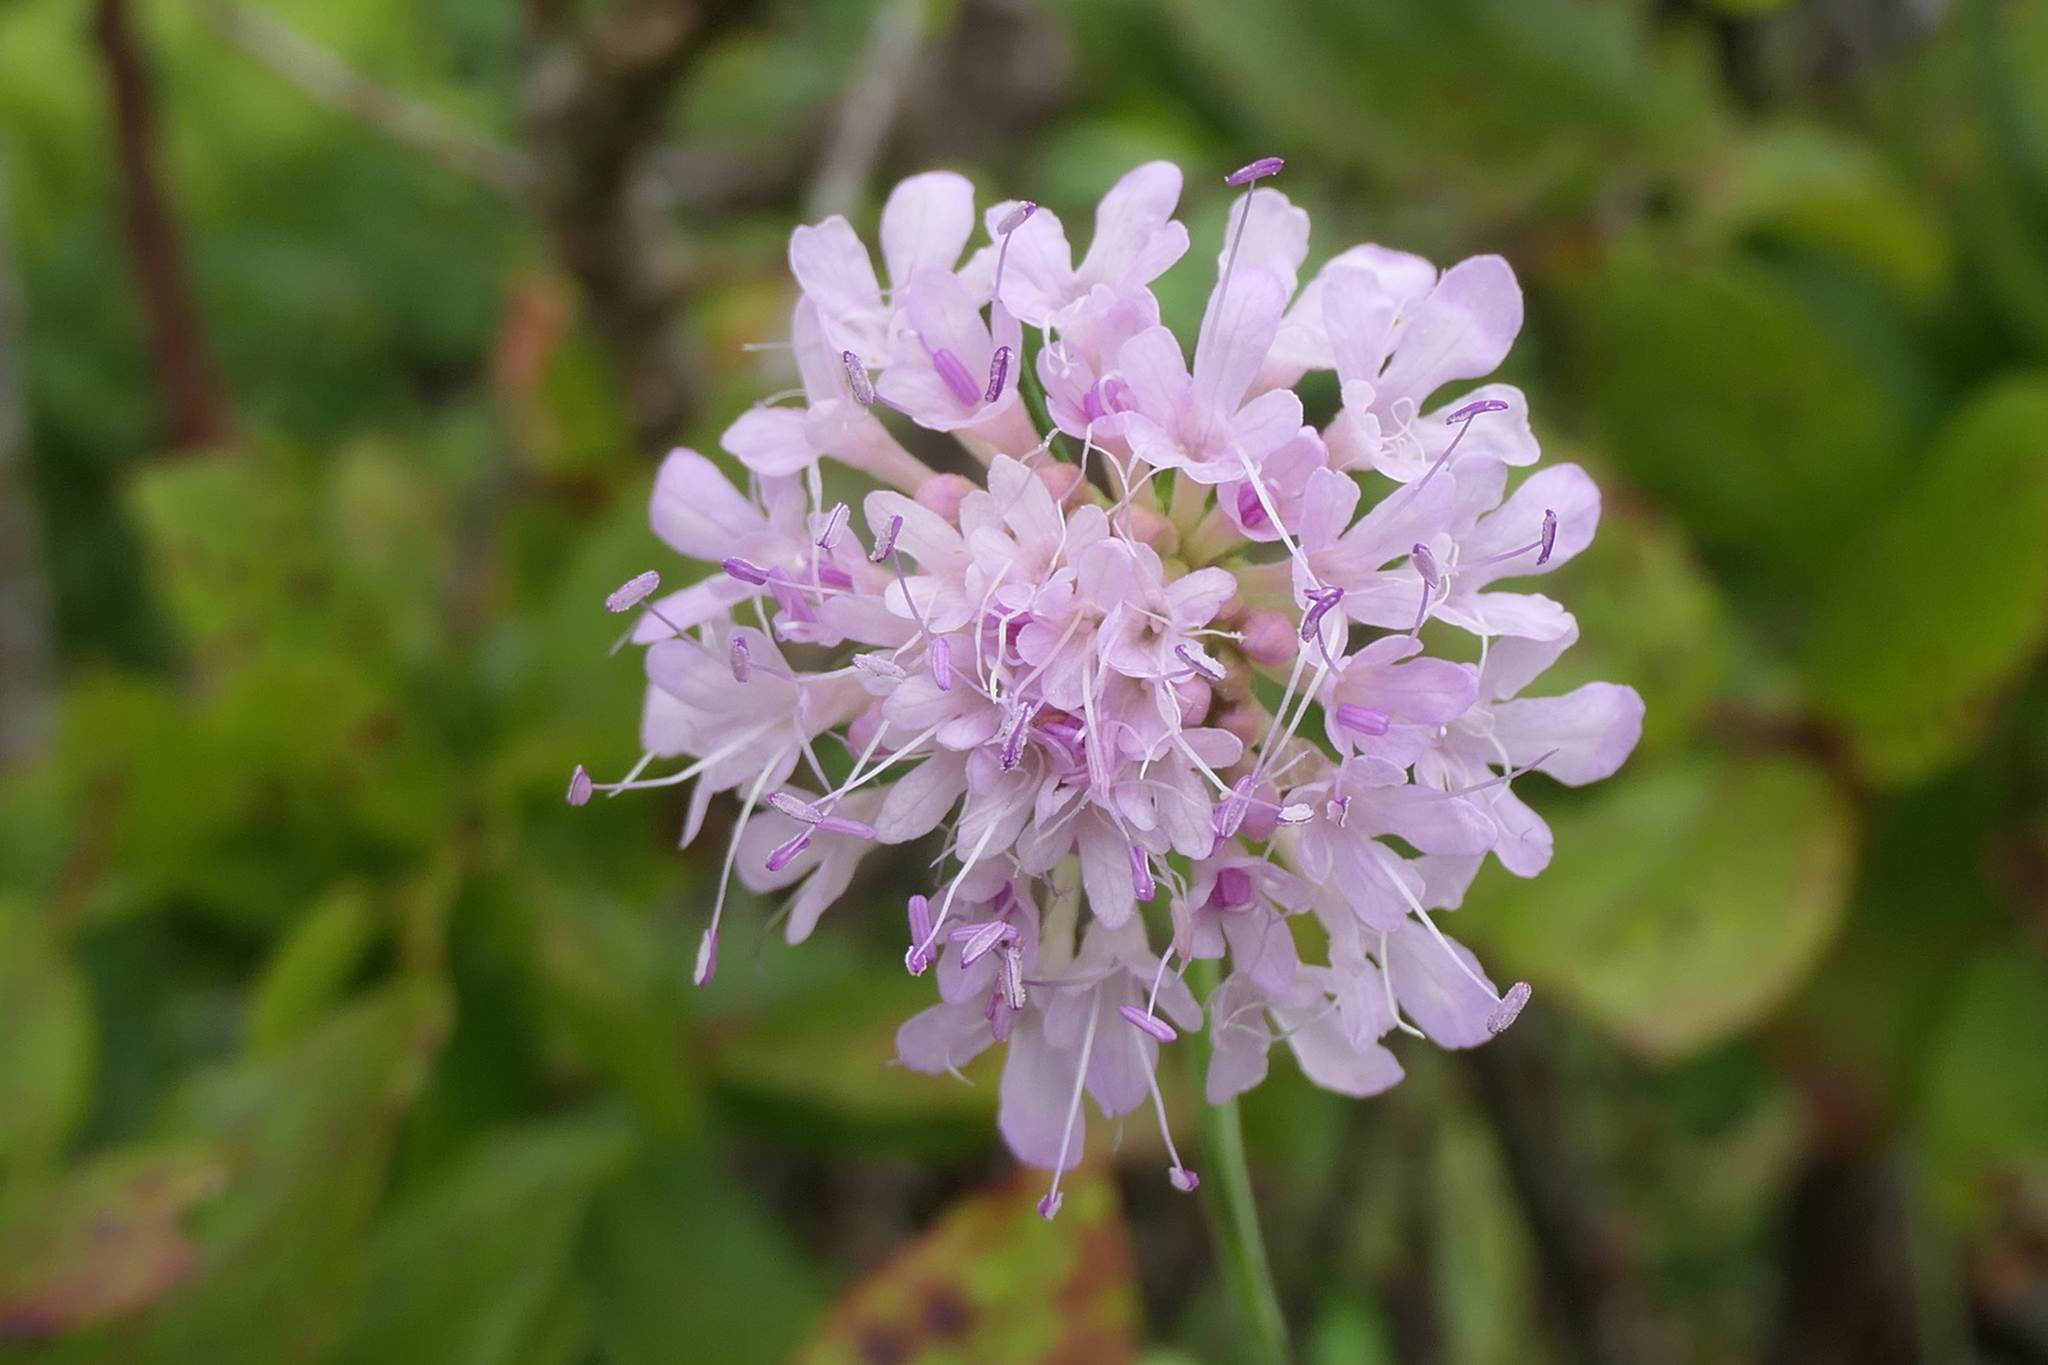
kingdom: Plantae
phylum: Tracheophyta
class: Magnoliopsida
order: Dipsacales
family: Caprifoliaceae
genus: Scabiosa
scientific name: Scabiosa nitens
